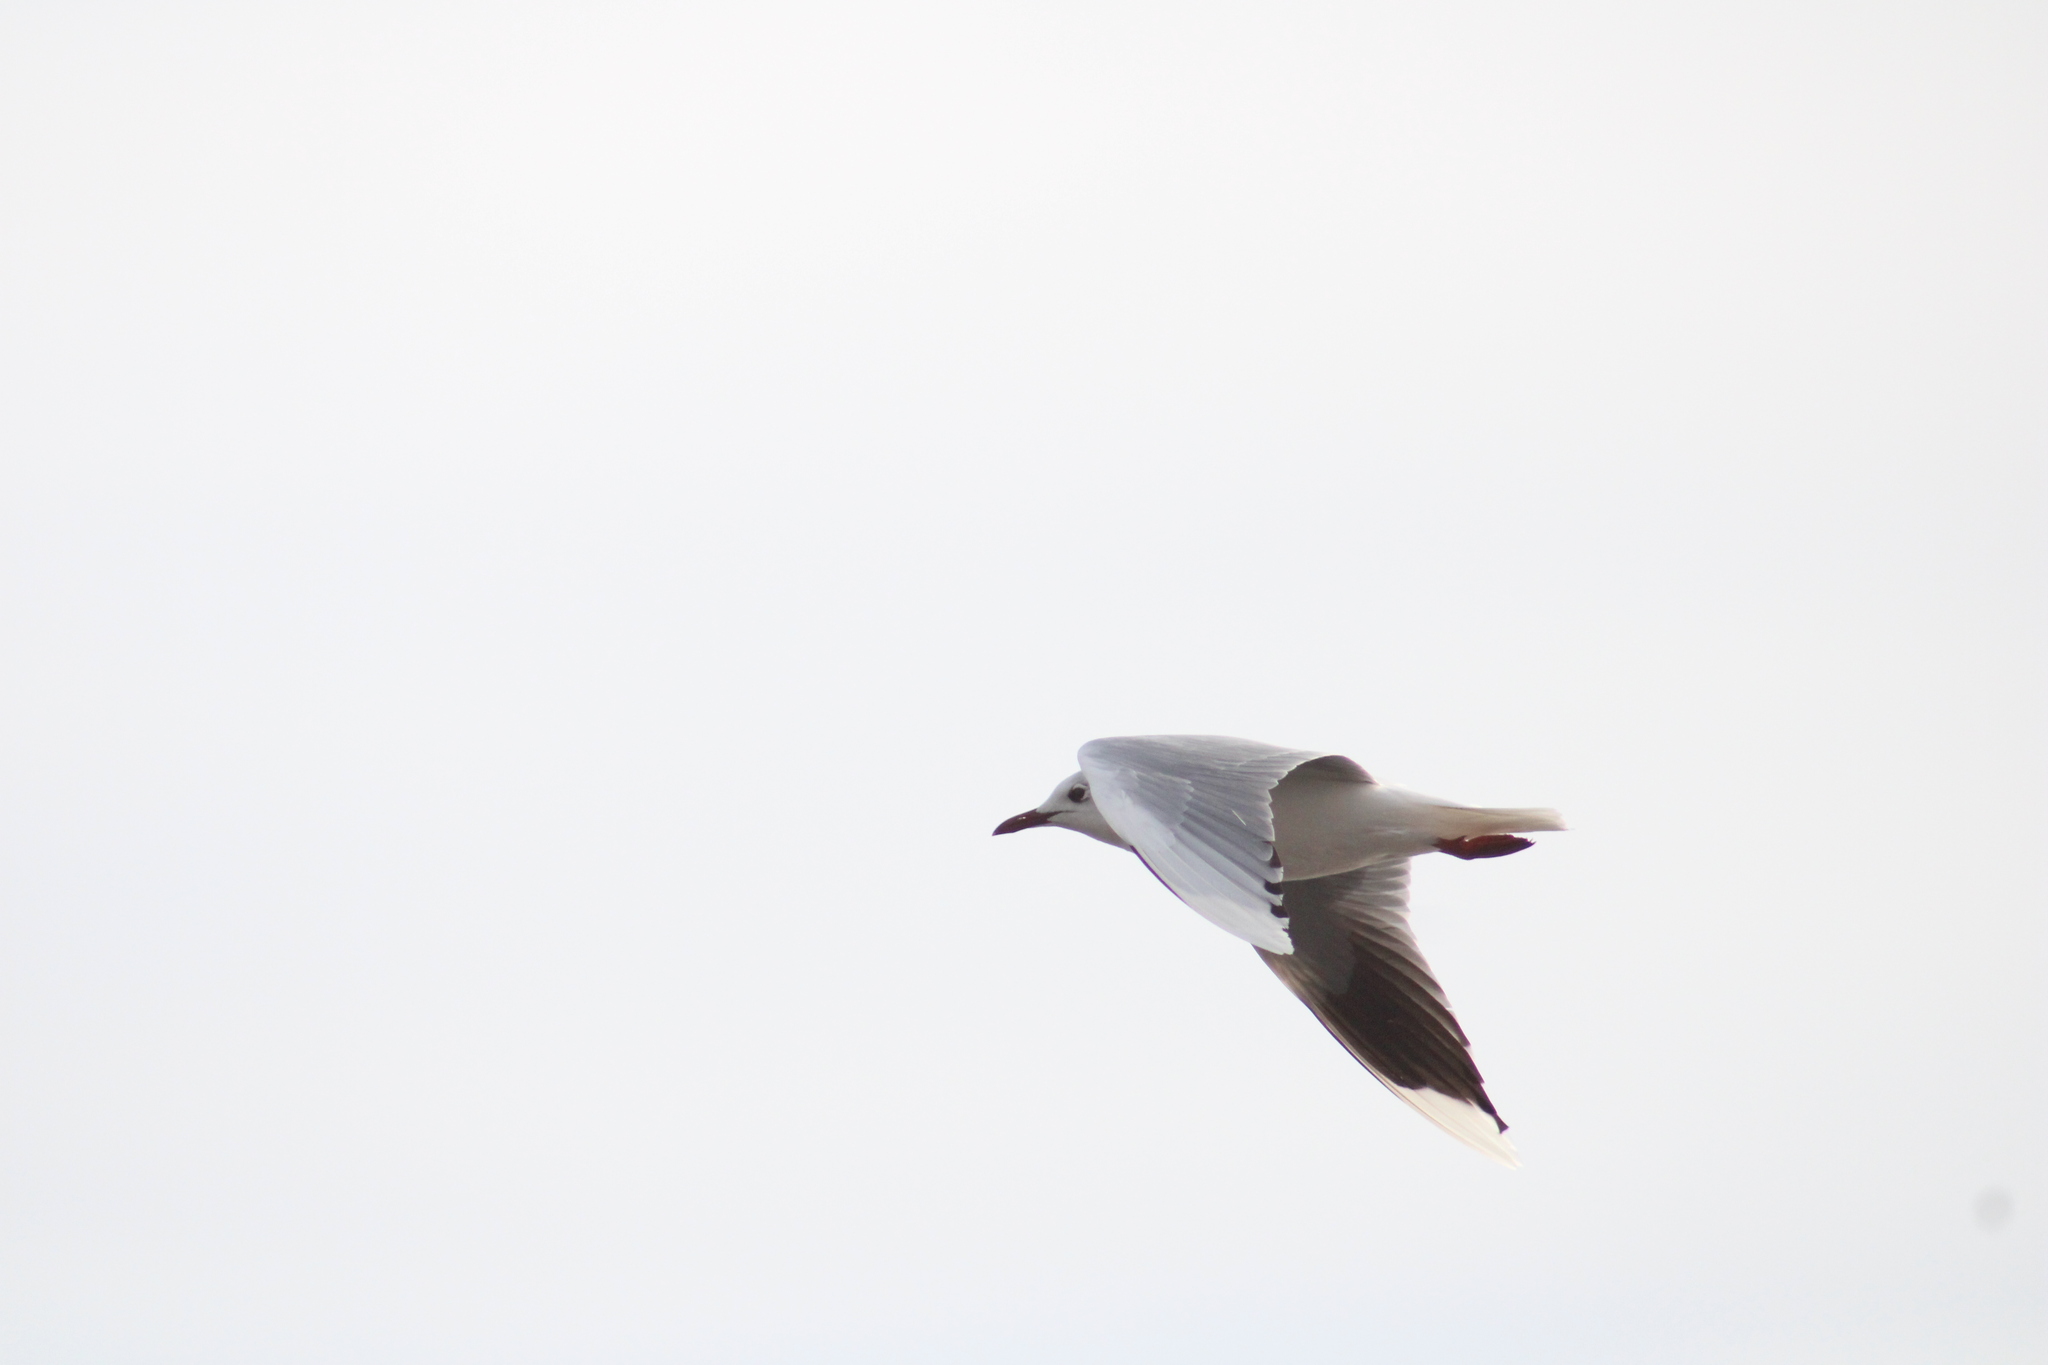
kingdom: Animalia
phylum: Chordata
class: Aves
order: Charadriiformes
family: Laridae
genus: Chroicocephalus
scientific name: Chroicocephalus maculipennis
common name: Brown-hooded gull
